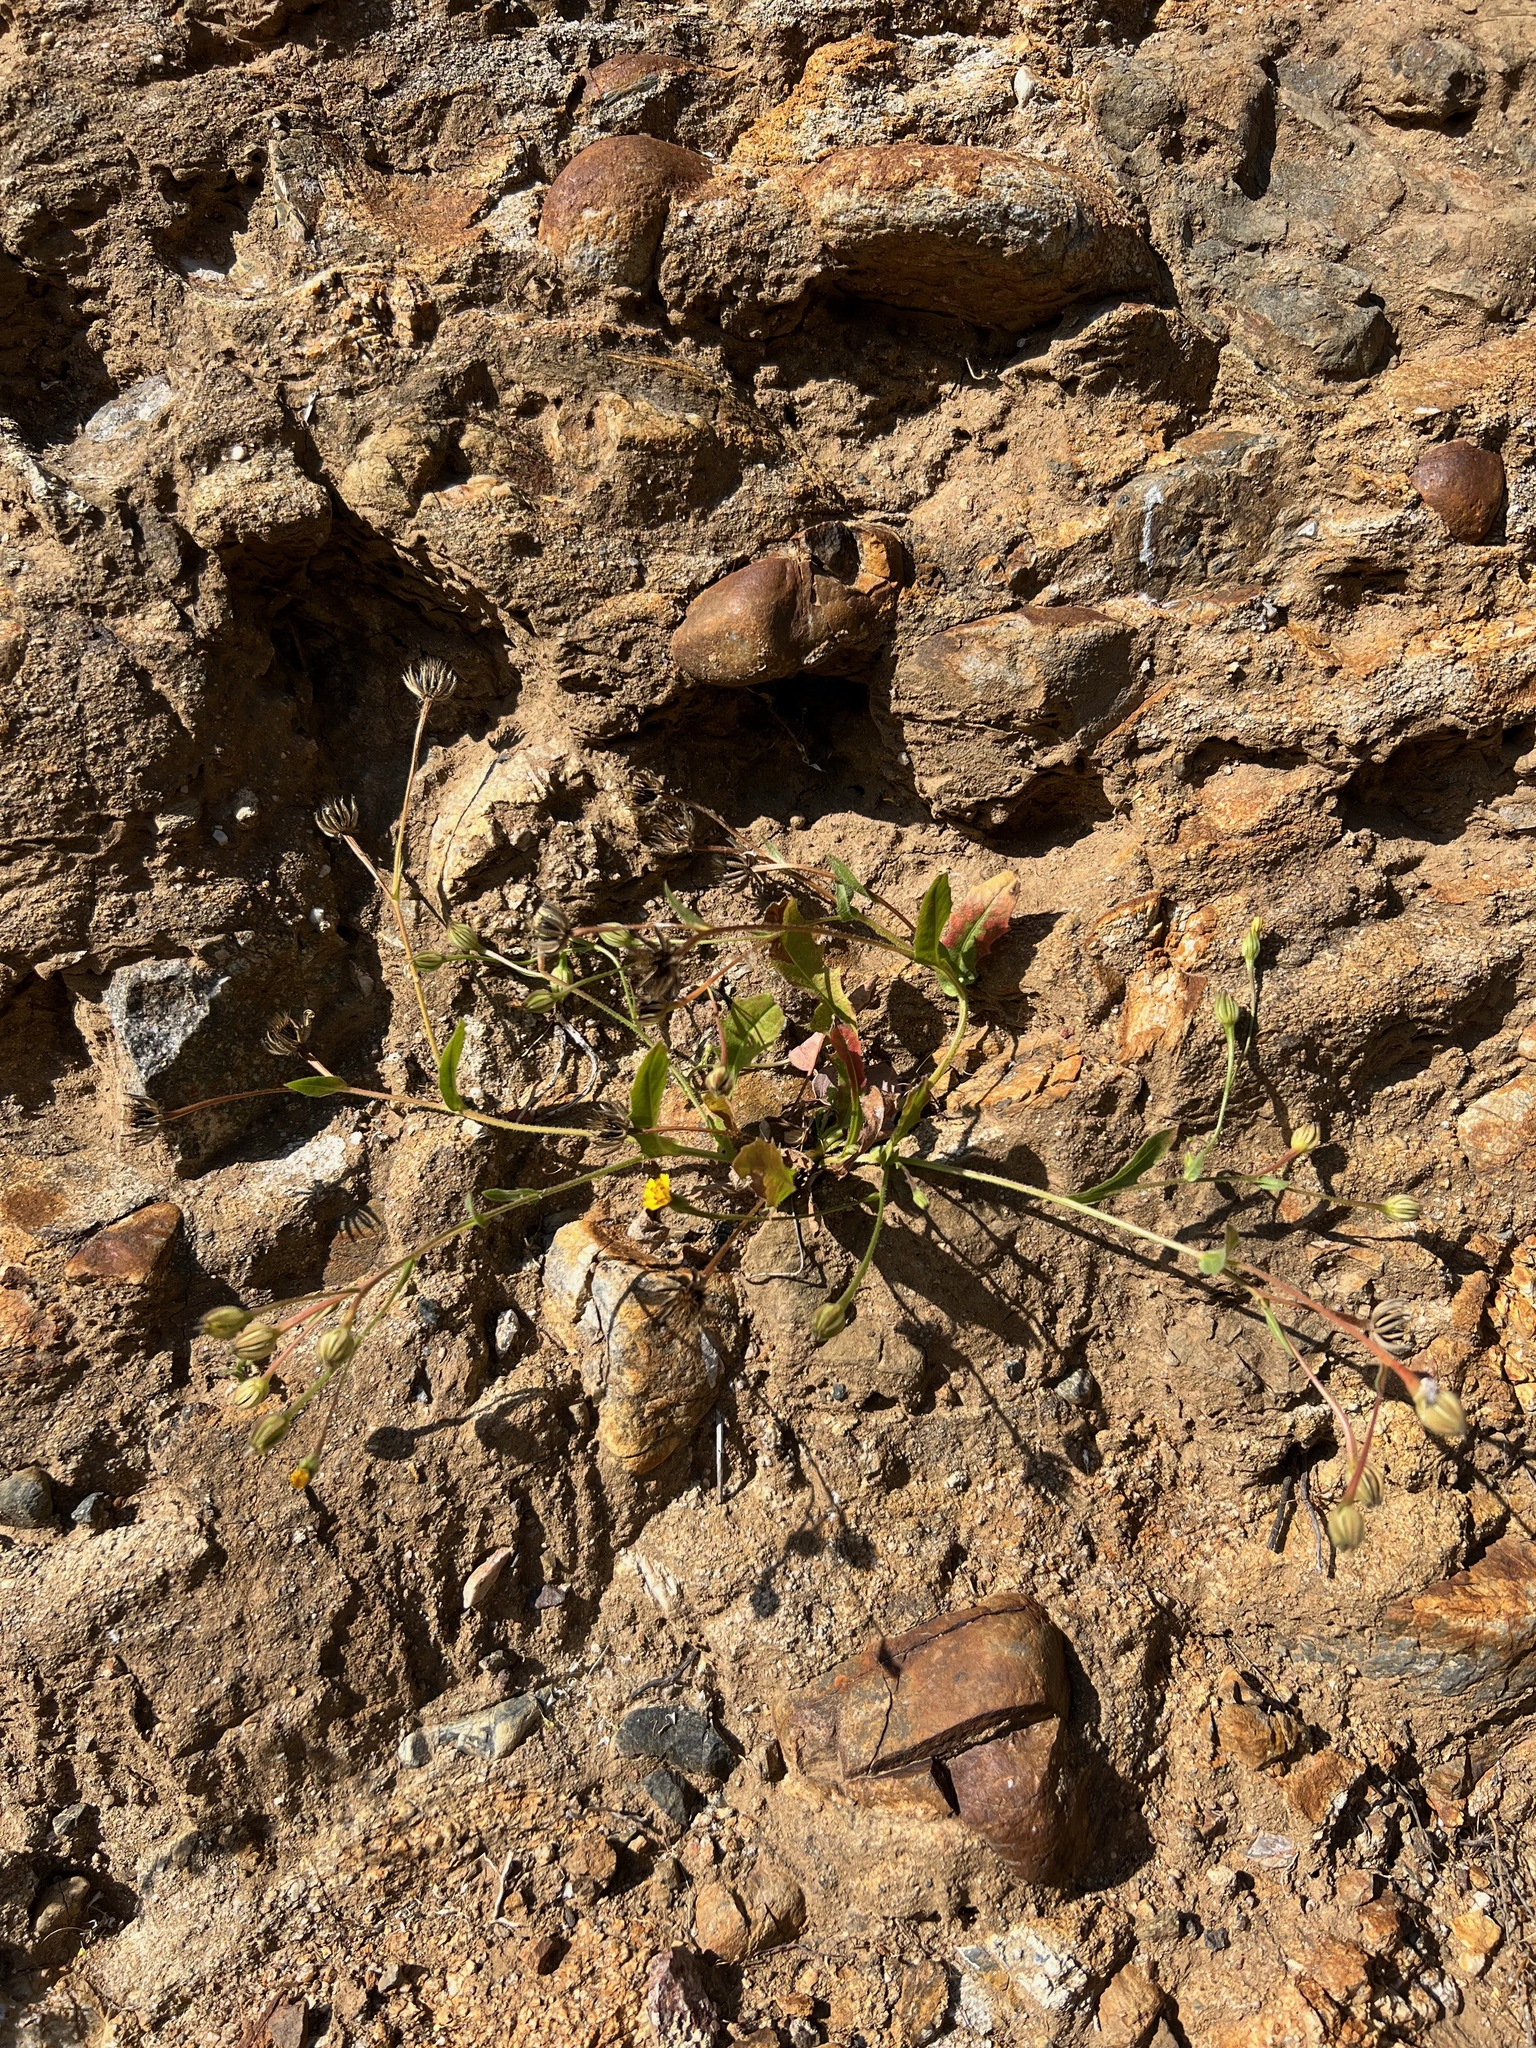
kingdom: Plantae
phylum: Tracheophyta
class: Magnoliopsida
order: Asterales
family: Asteraceae
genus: Hedypnois
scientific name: Hedypnois rhagadioloides
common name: Cretan weed
